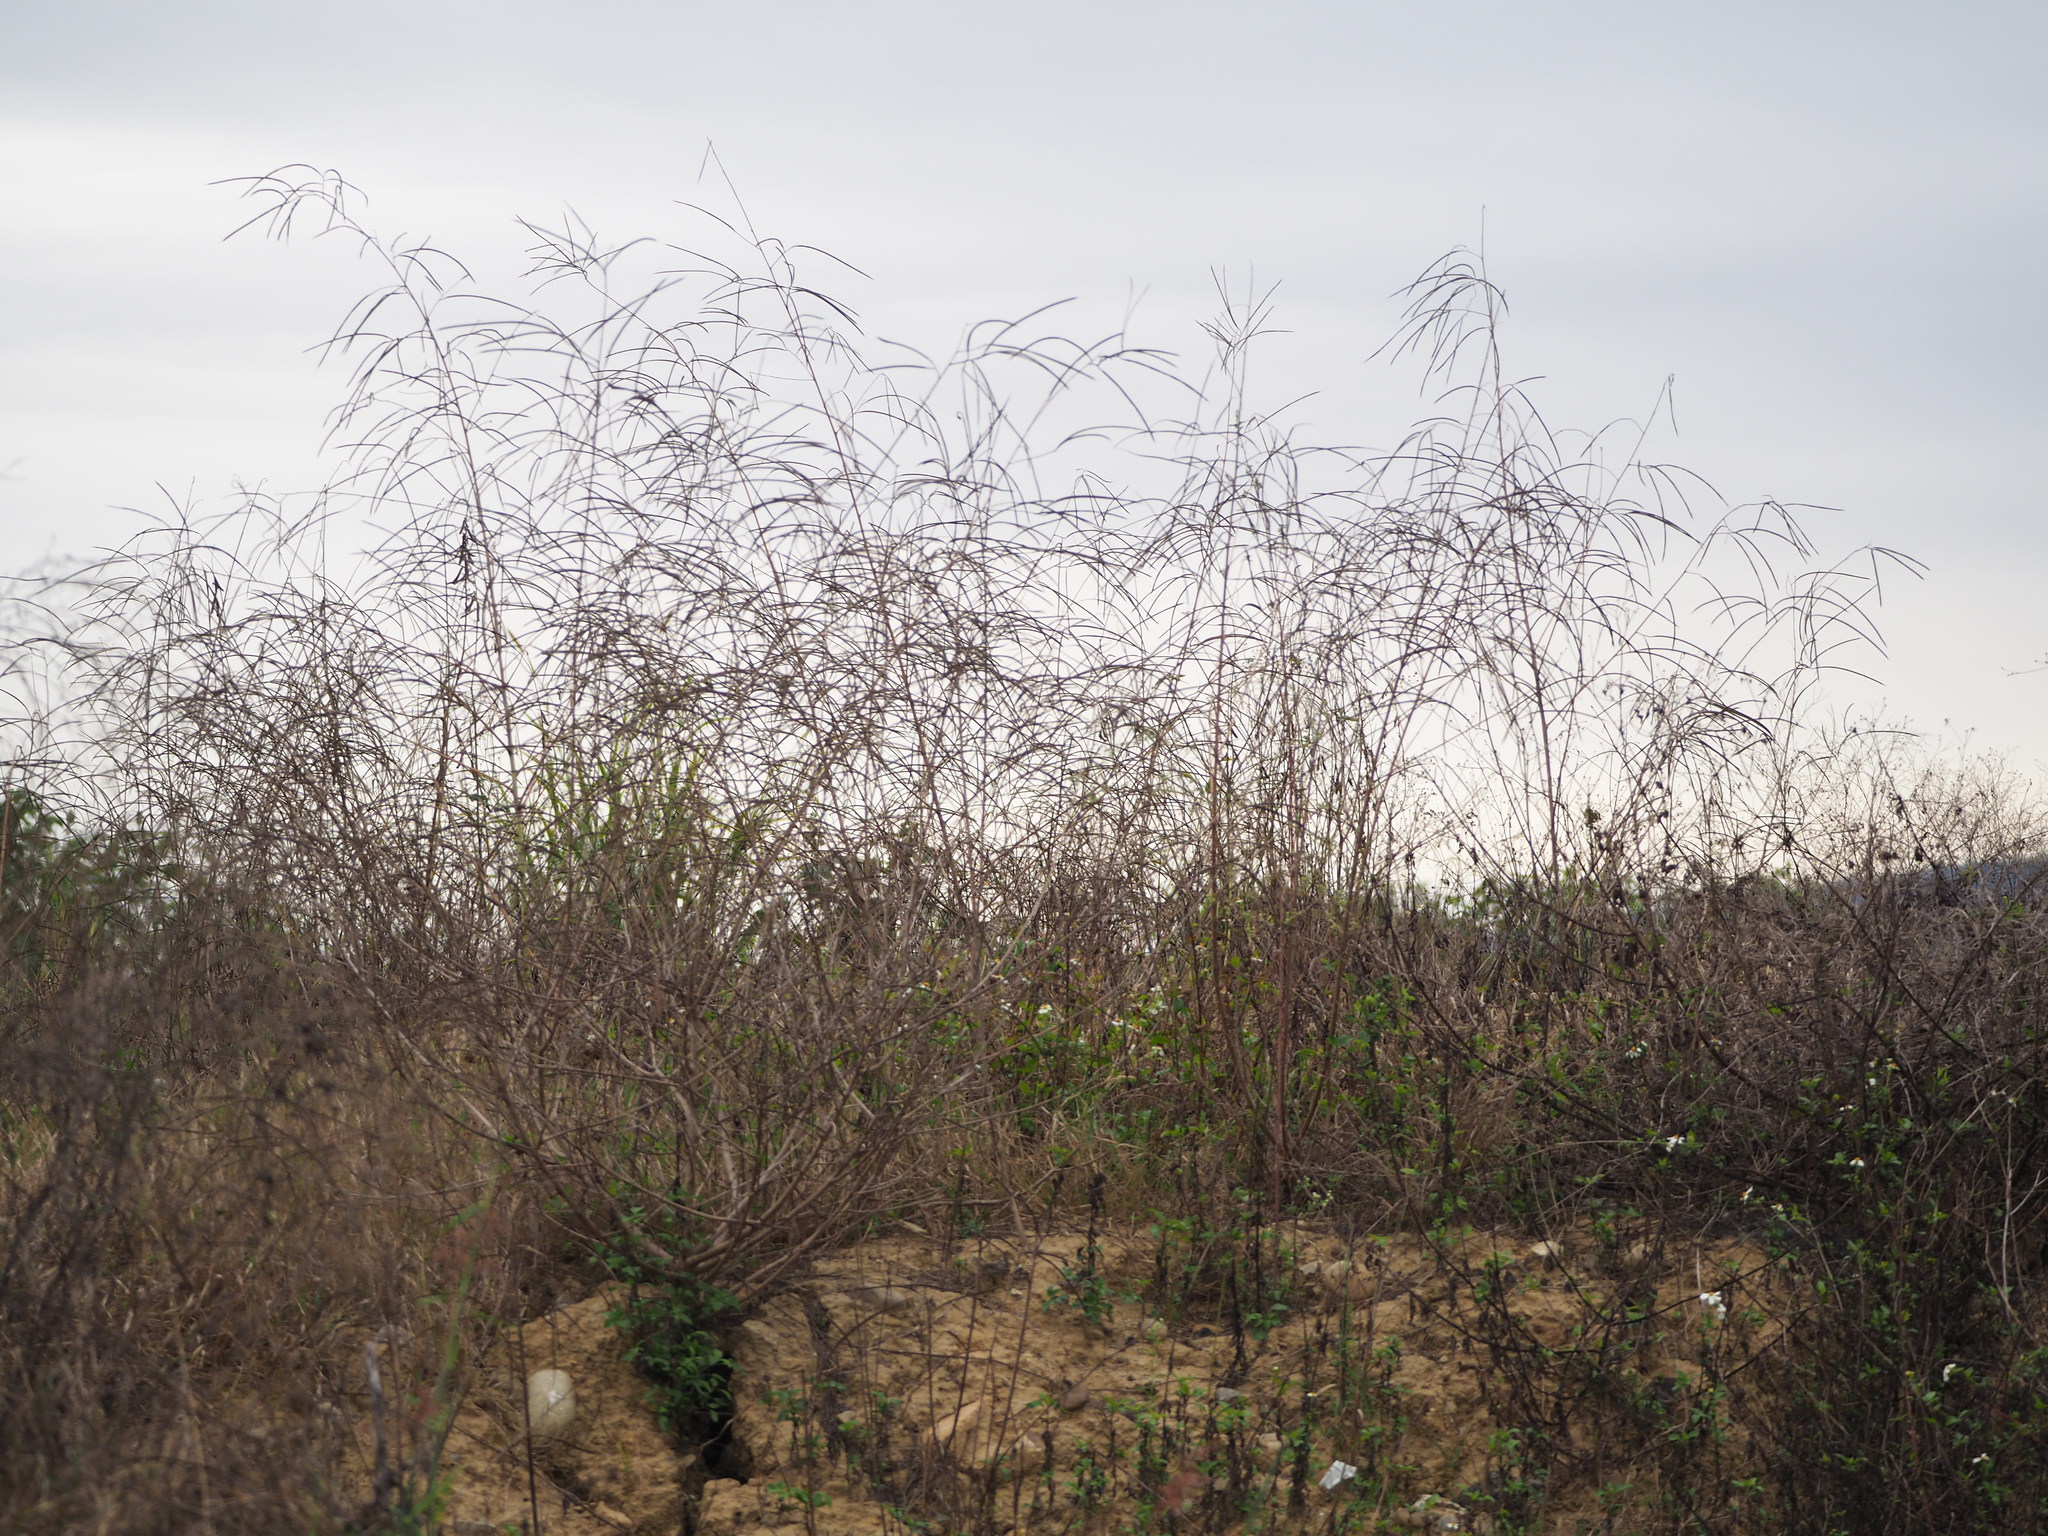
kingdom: Plantae
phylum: Tracheophyta
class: Magnoliopsida
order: Fabales
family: Fabaceae
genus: Sesbania
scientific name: Sesbania cannabina
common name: Canicha
